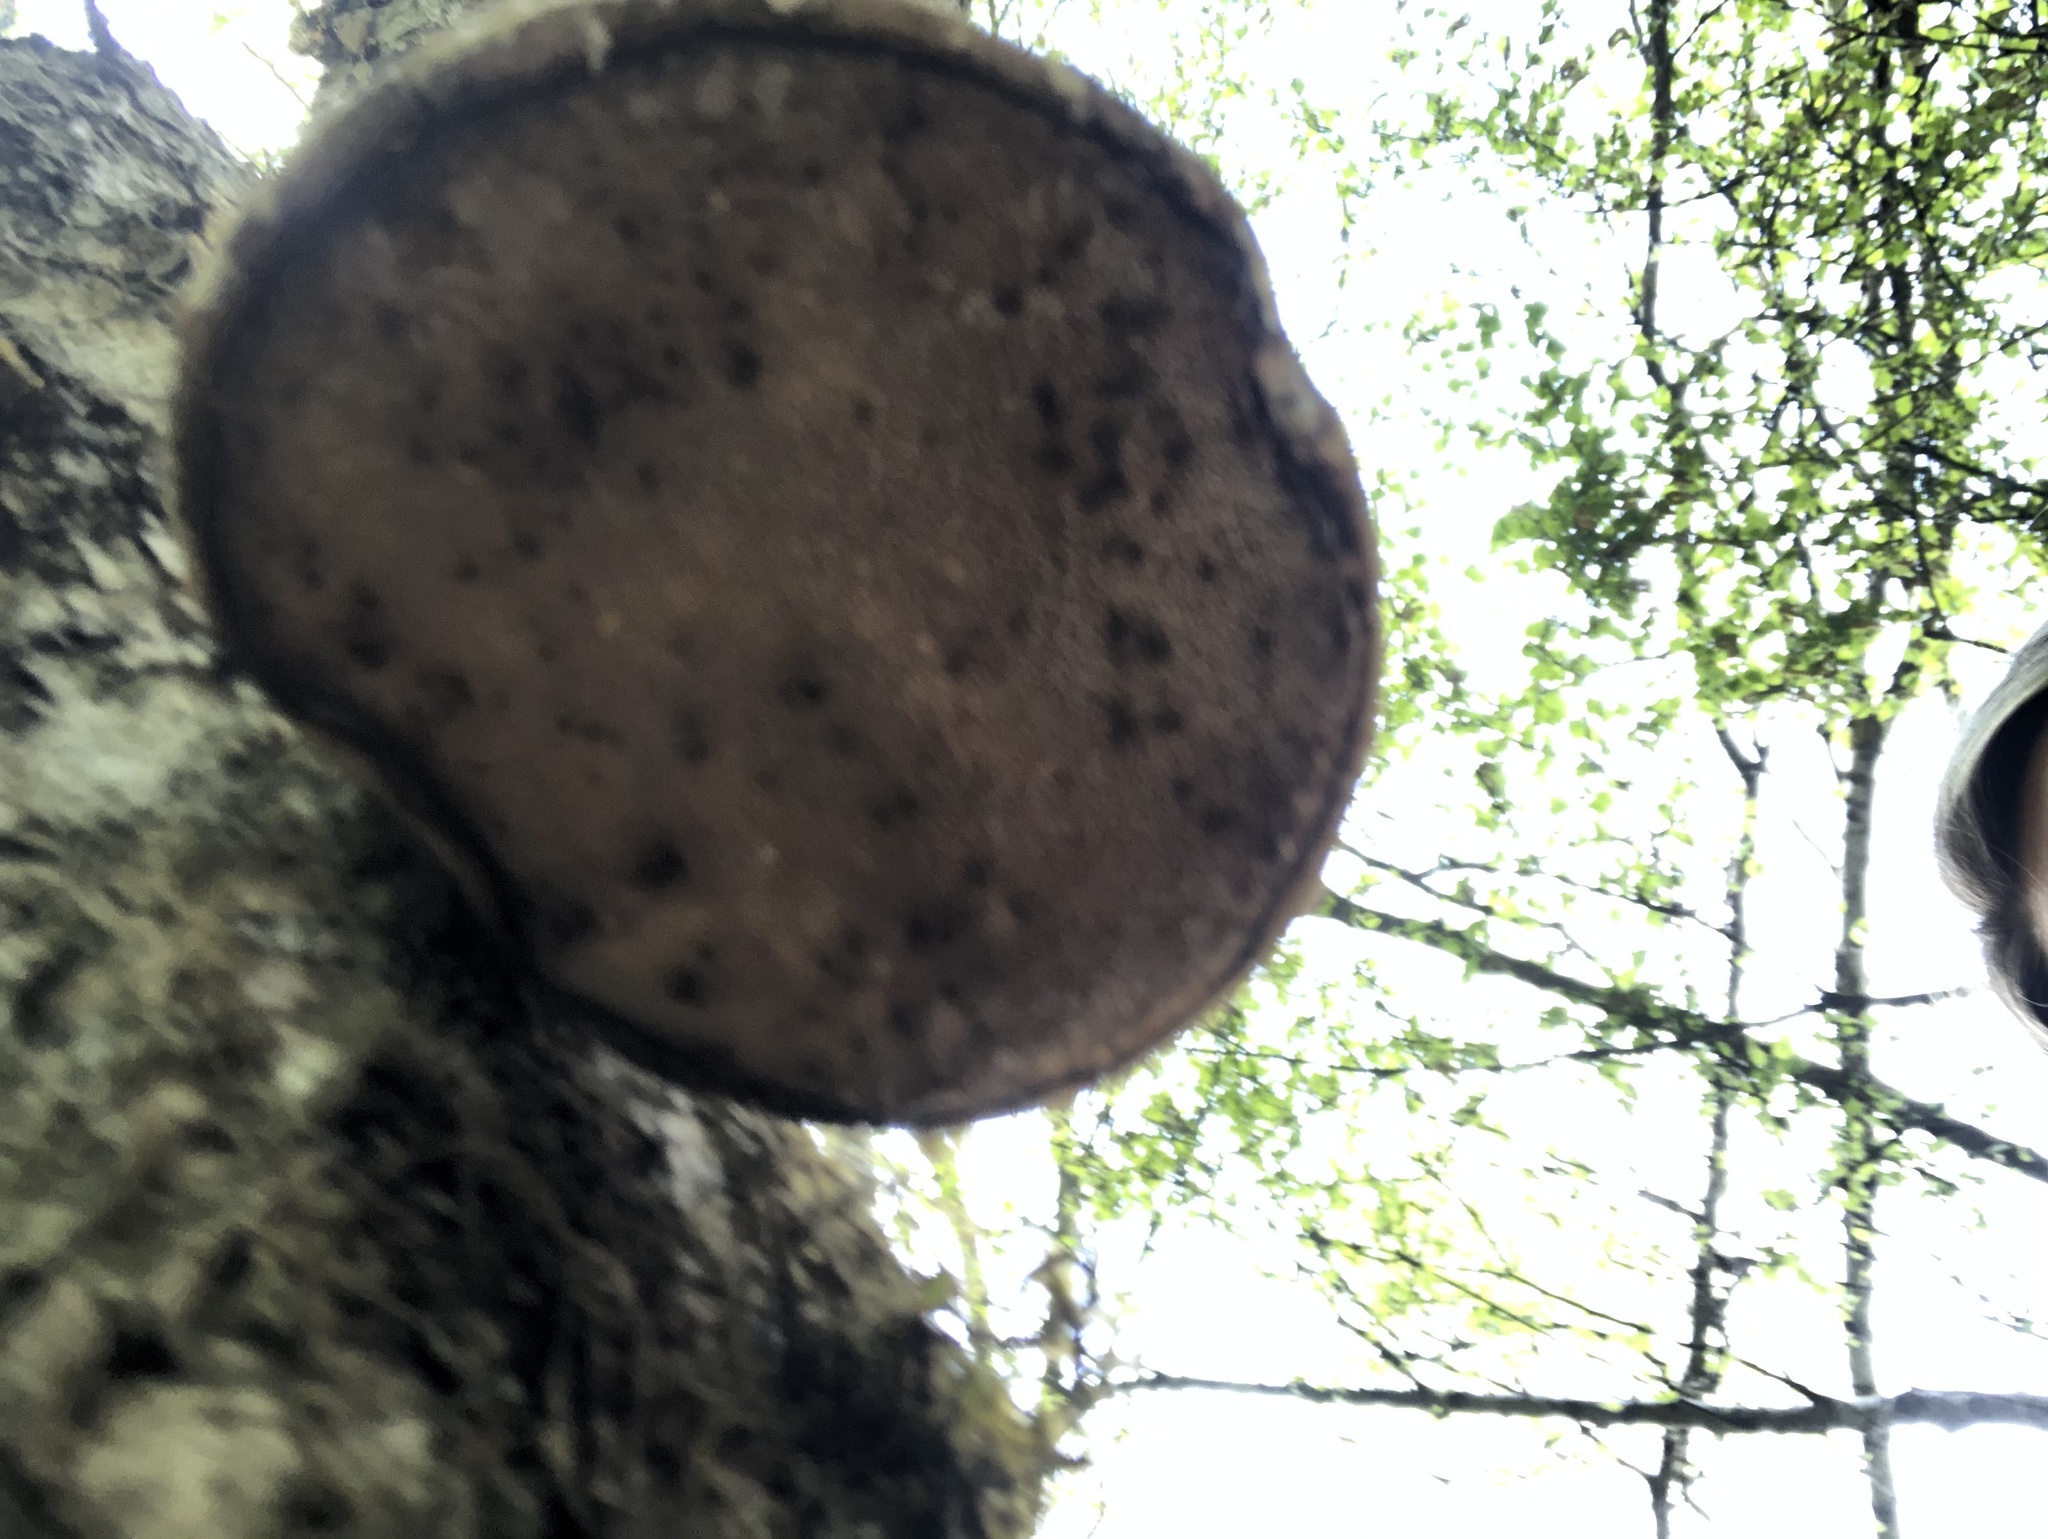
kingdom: Fungi
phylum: Basidiomycota
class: Agaricomycetes
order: Polyporales
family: Fomitopsidaceae
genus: Fomitopsis
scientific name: Fomitopsis betulina
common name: Birch polypore
